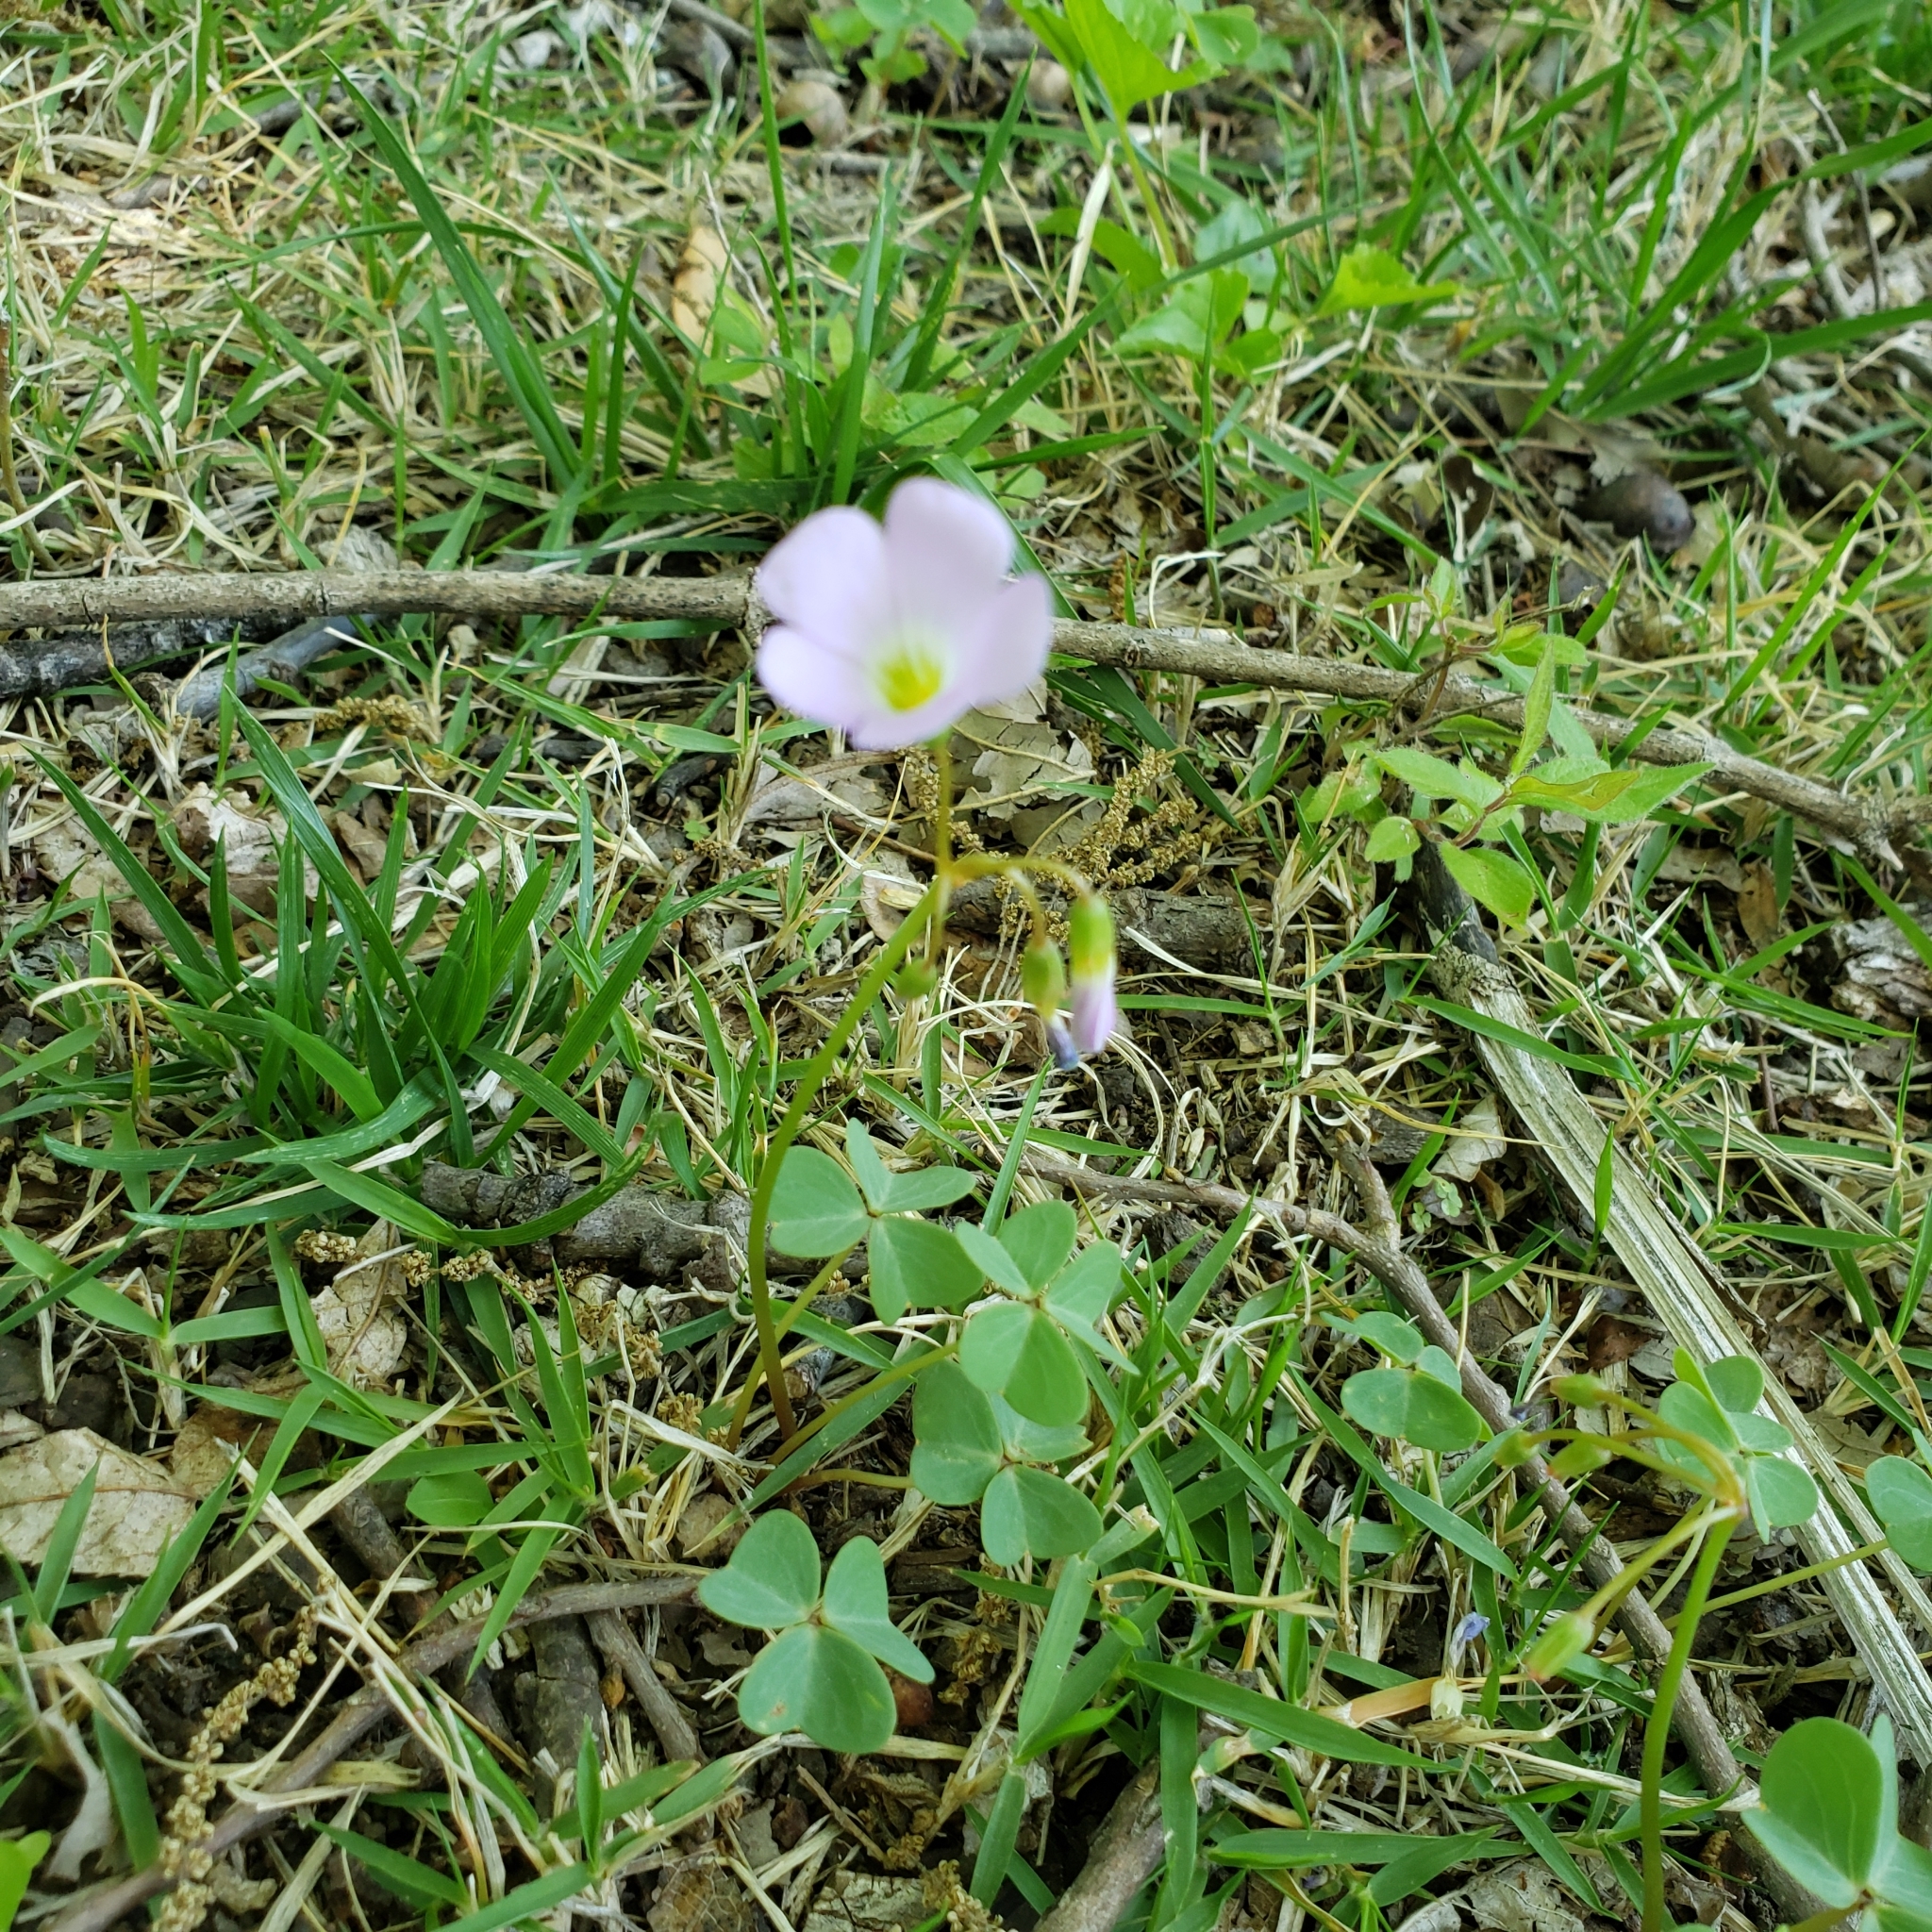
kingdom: Plantae
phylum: Tracheophyta
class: Magnoliopsida
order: Oxalidales
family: Oxalidaceae
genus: Oxalis
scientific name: Oxalis violacea
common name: Violet wood-sorrel
